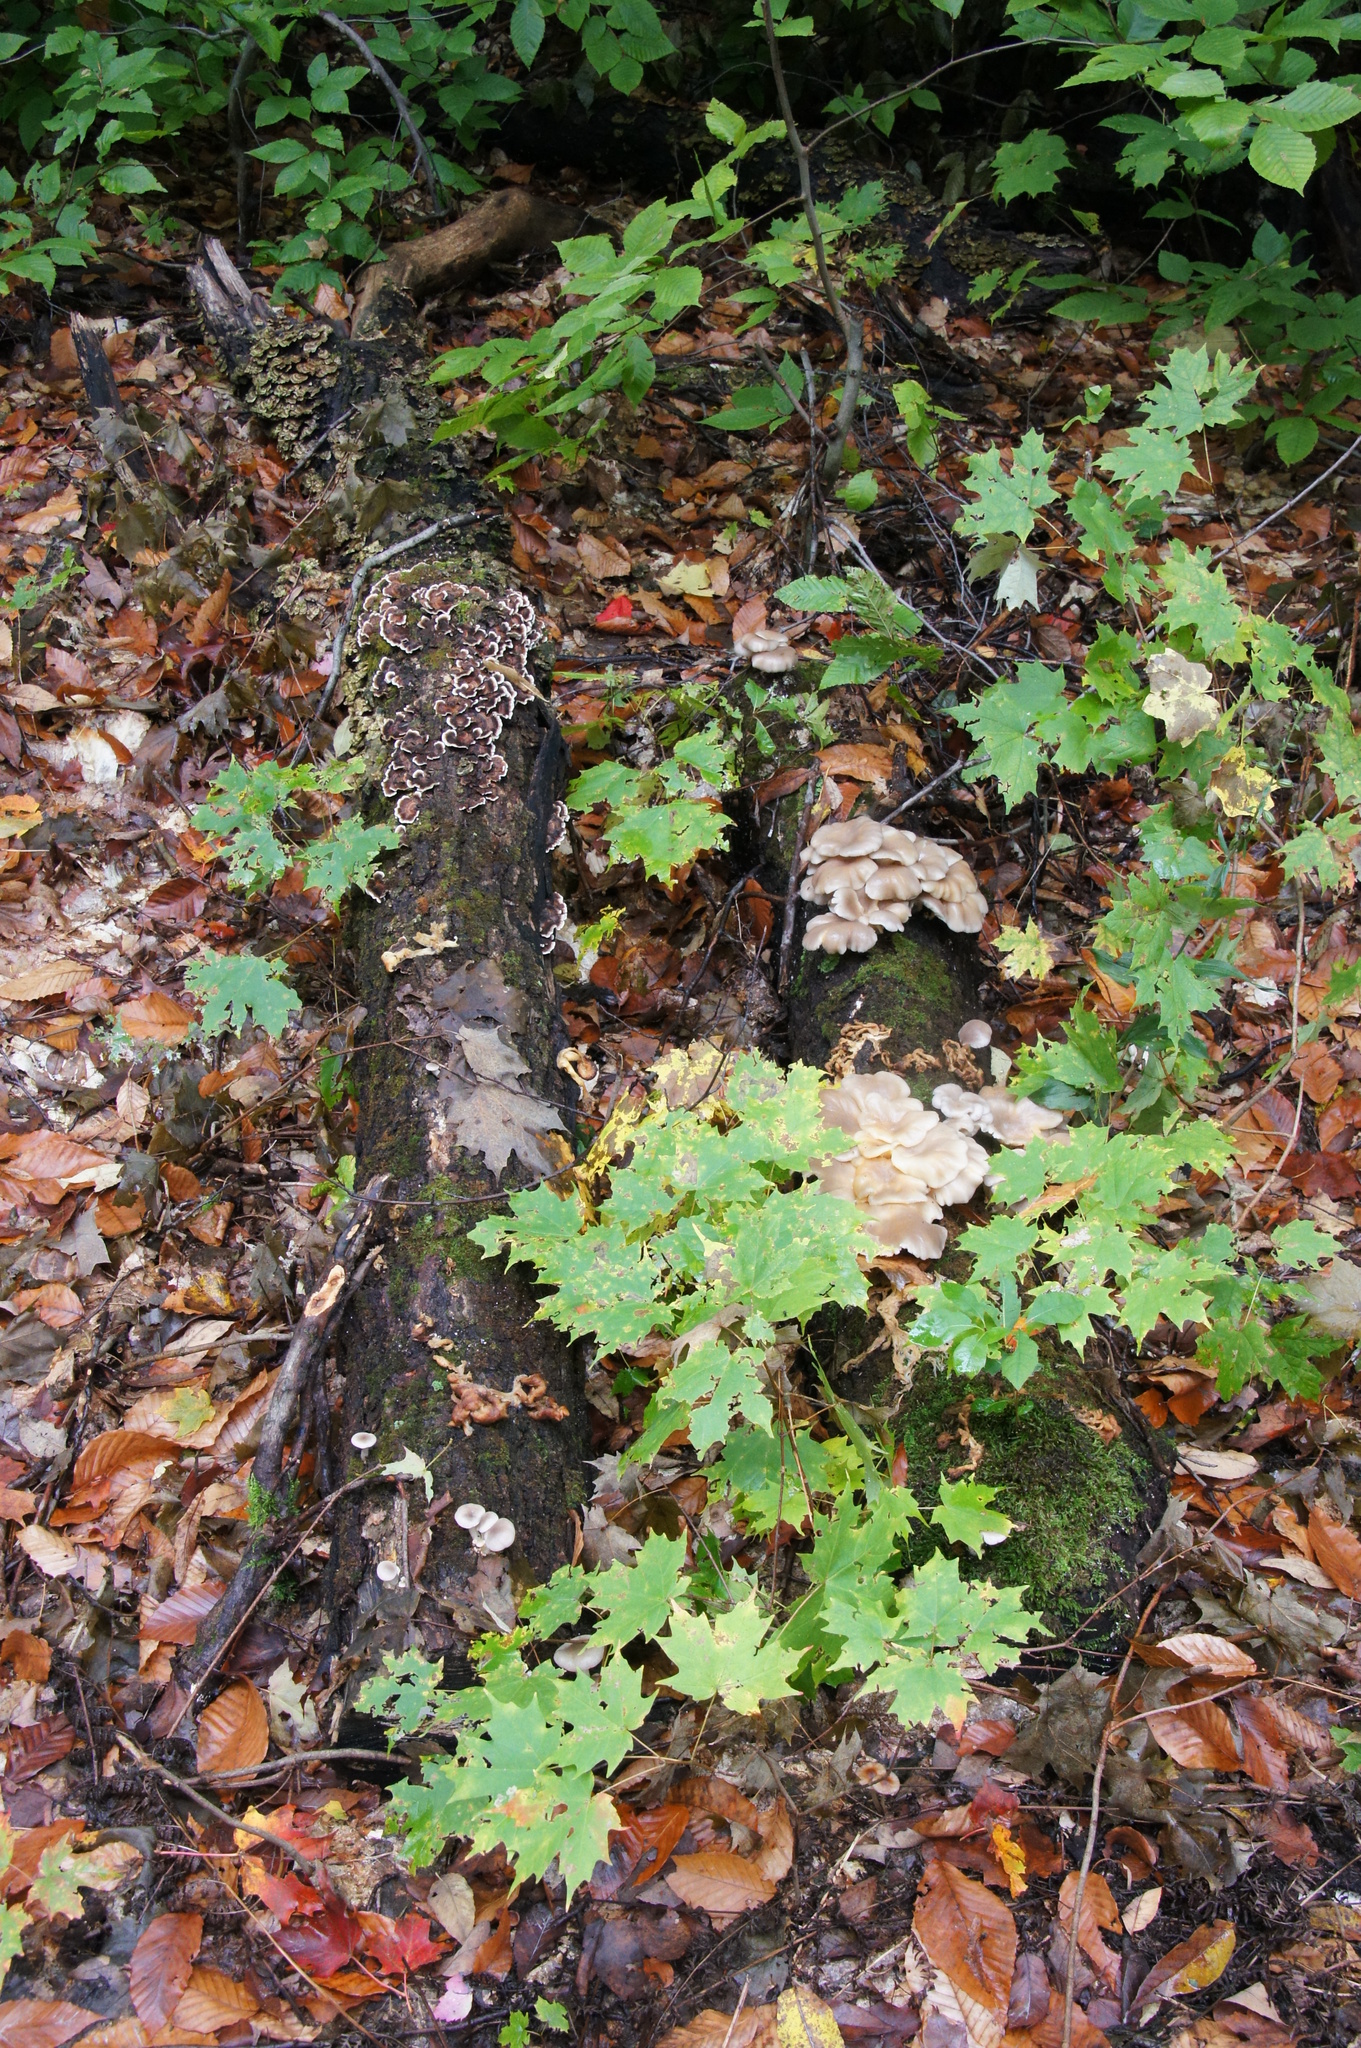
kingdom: Plantae
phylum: Tracheophyta
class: Magnoliopsida
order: Sapindales
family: Sapindaceae
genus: Acer
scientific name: Acer saccharum
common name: Sugar maple
